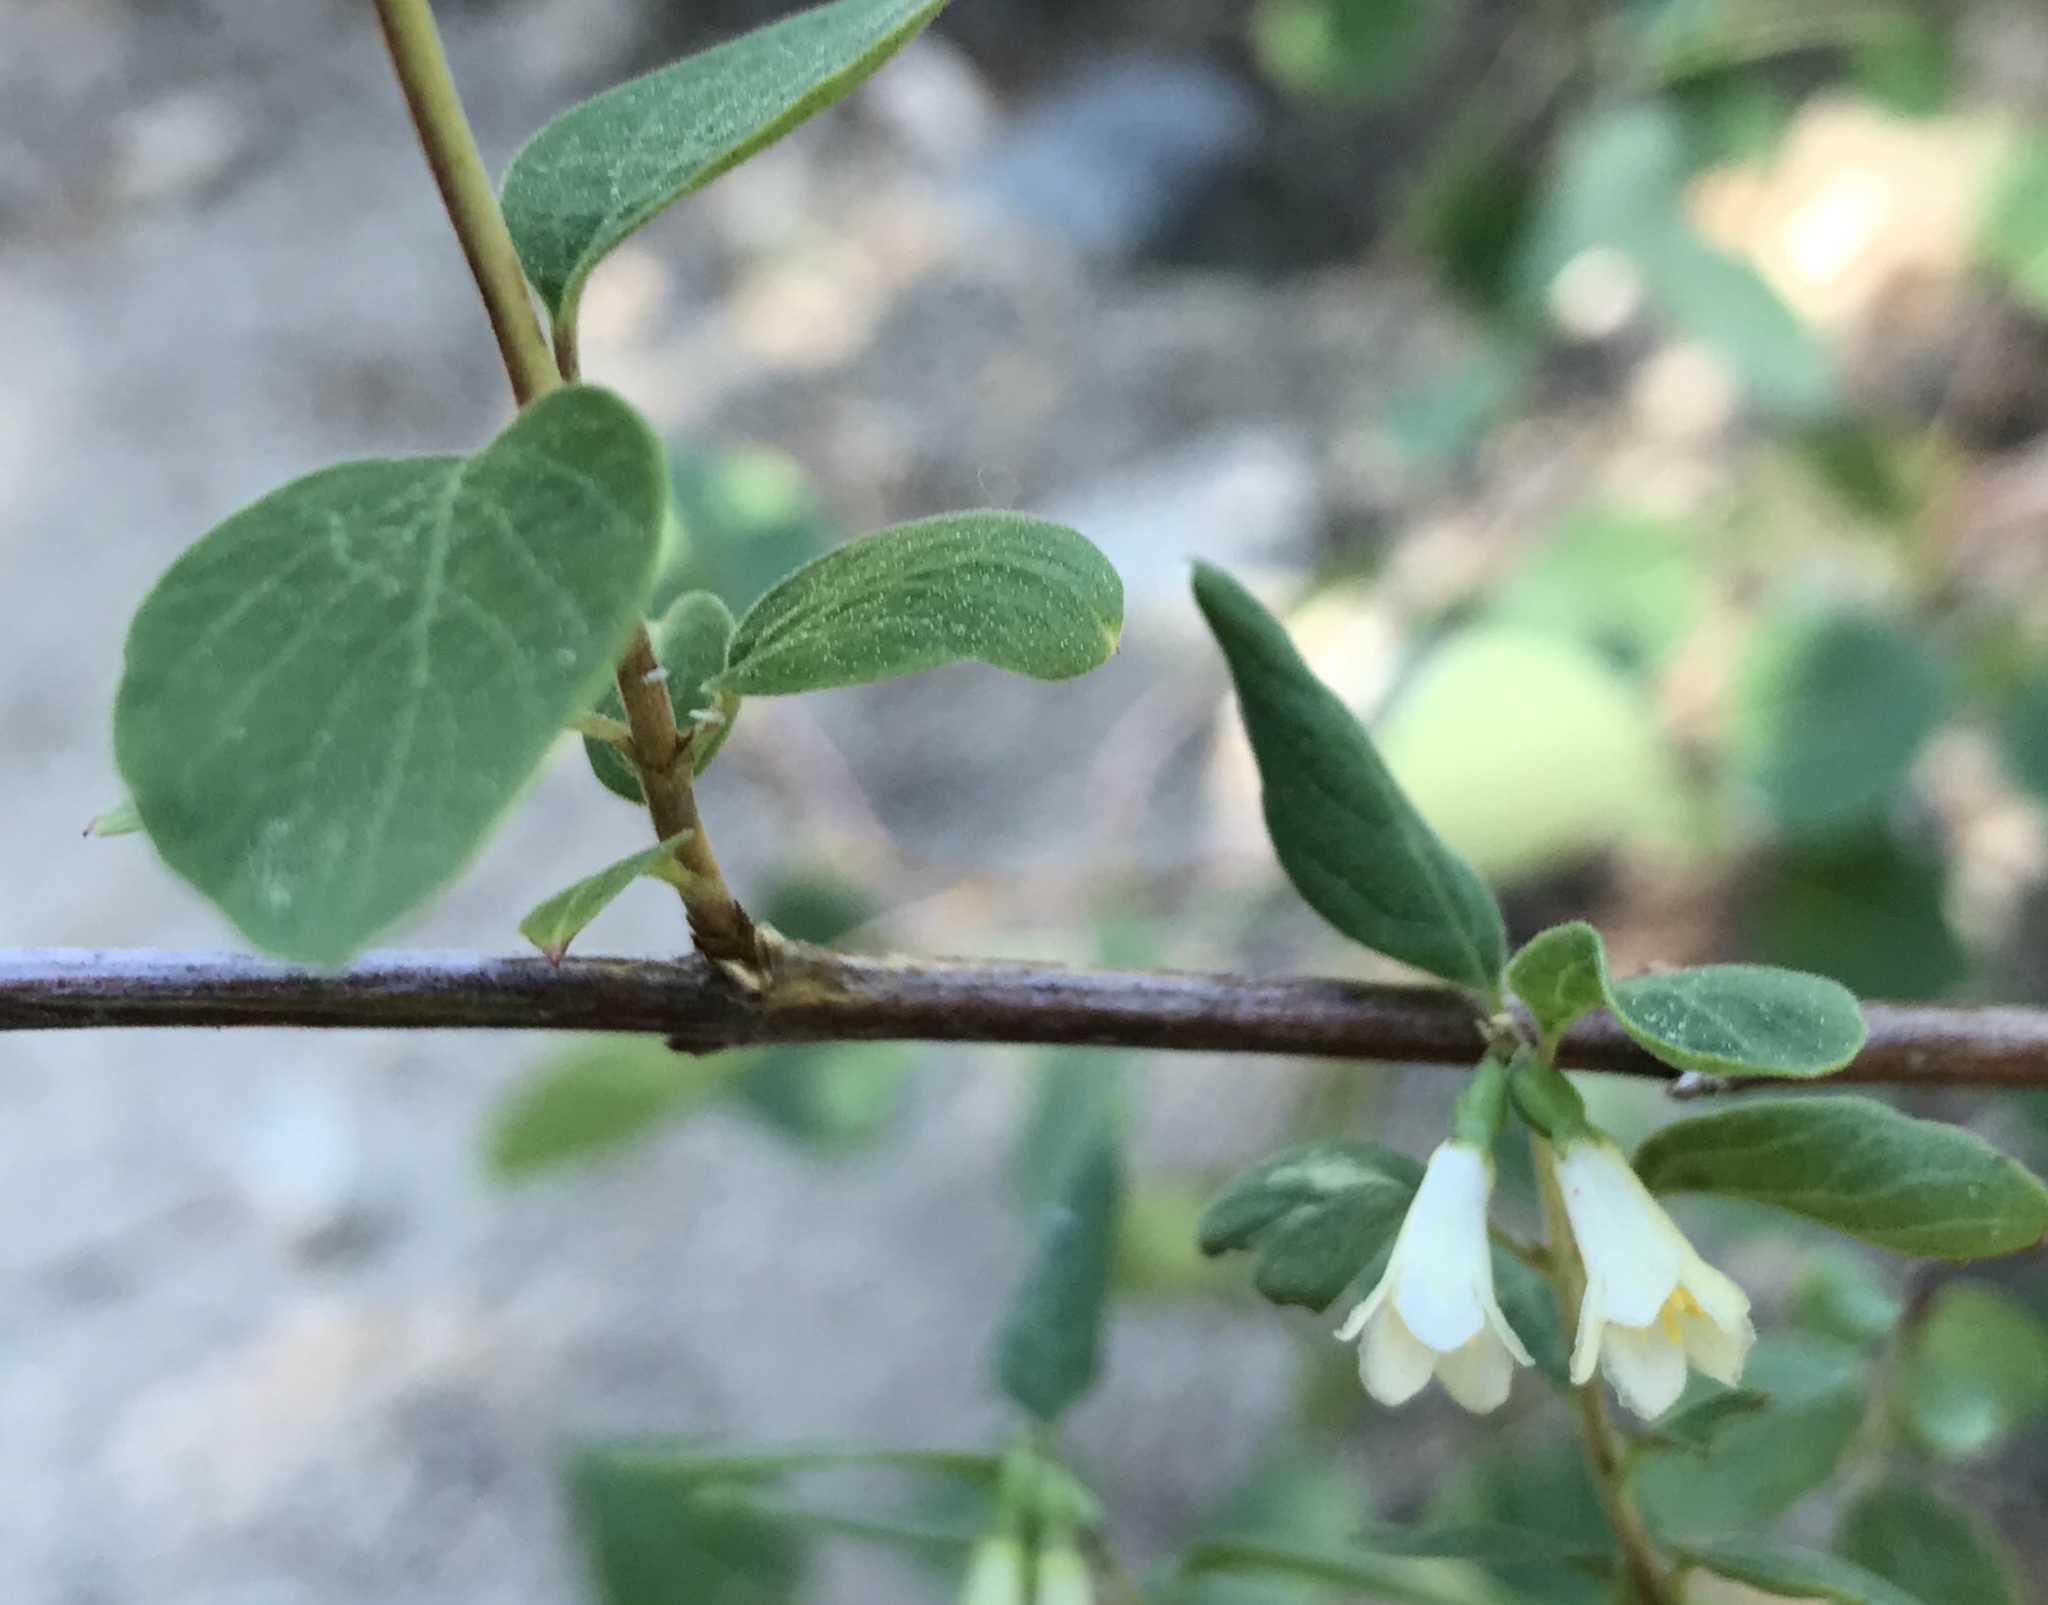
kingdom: Plantae
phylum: Tracheophyta
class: Magnoliopsida
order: Dipsacales
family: Caprifoliaceae
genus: Symphoricarpos
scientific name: Symphoricarpos rotundifolius
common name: Round-leaved snowberry
